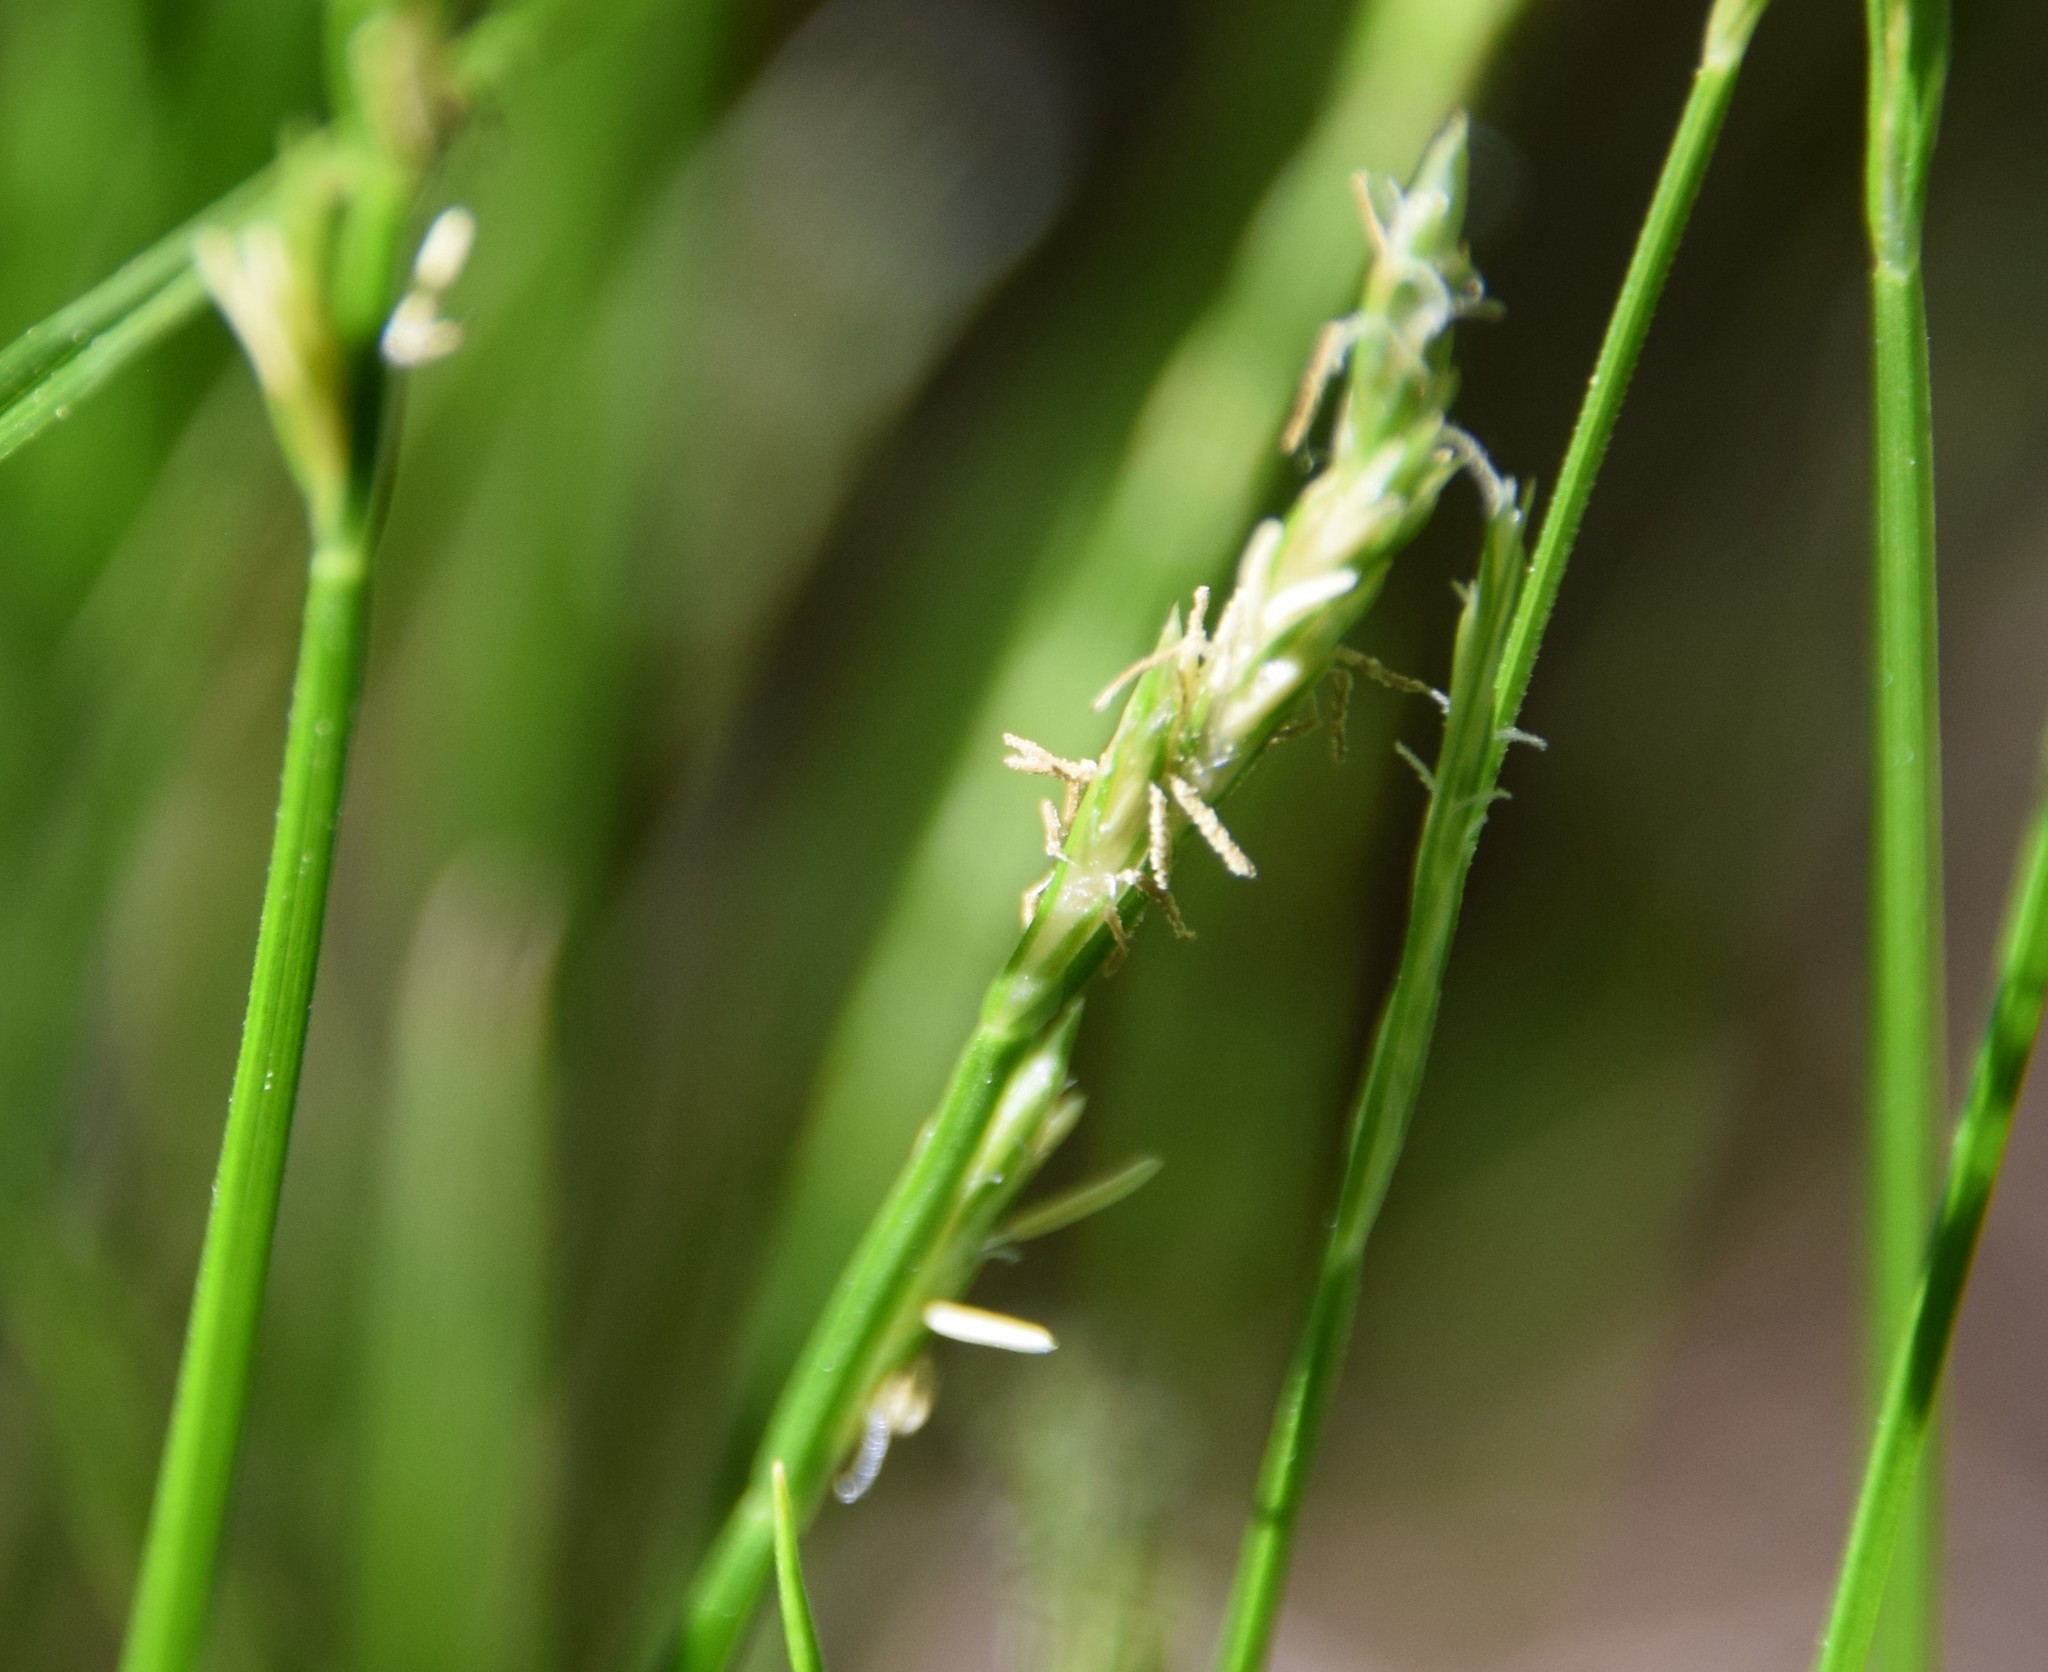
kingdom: Plantae
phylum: Tracheophyta
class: Liliopsida
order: Poales
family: Cyperaceae
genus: Carex
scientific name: Carex bromoides
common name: Brome hummock sedge
